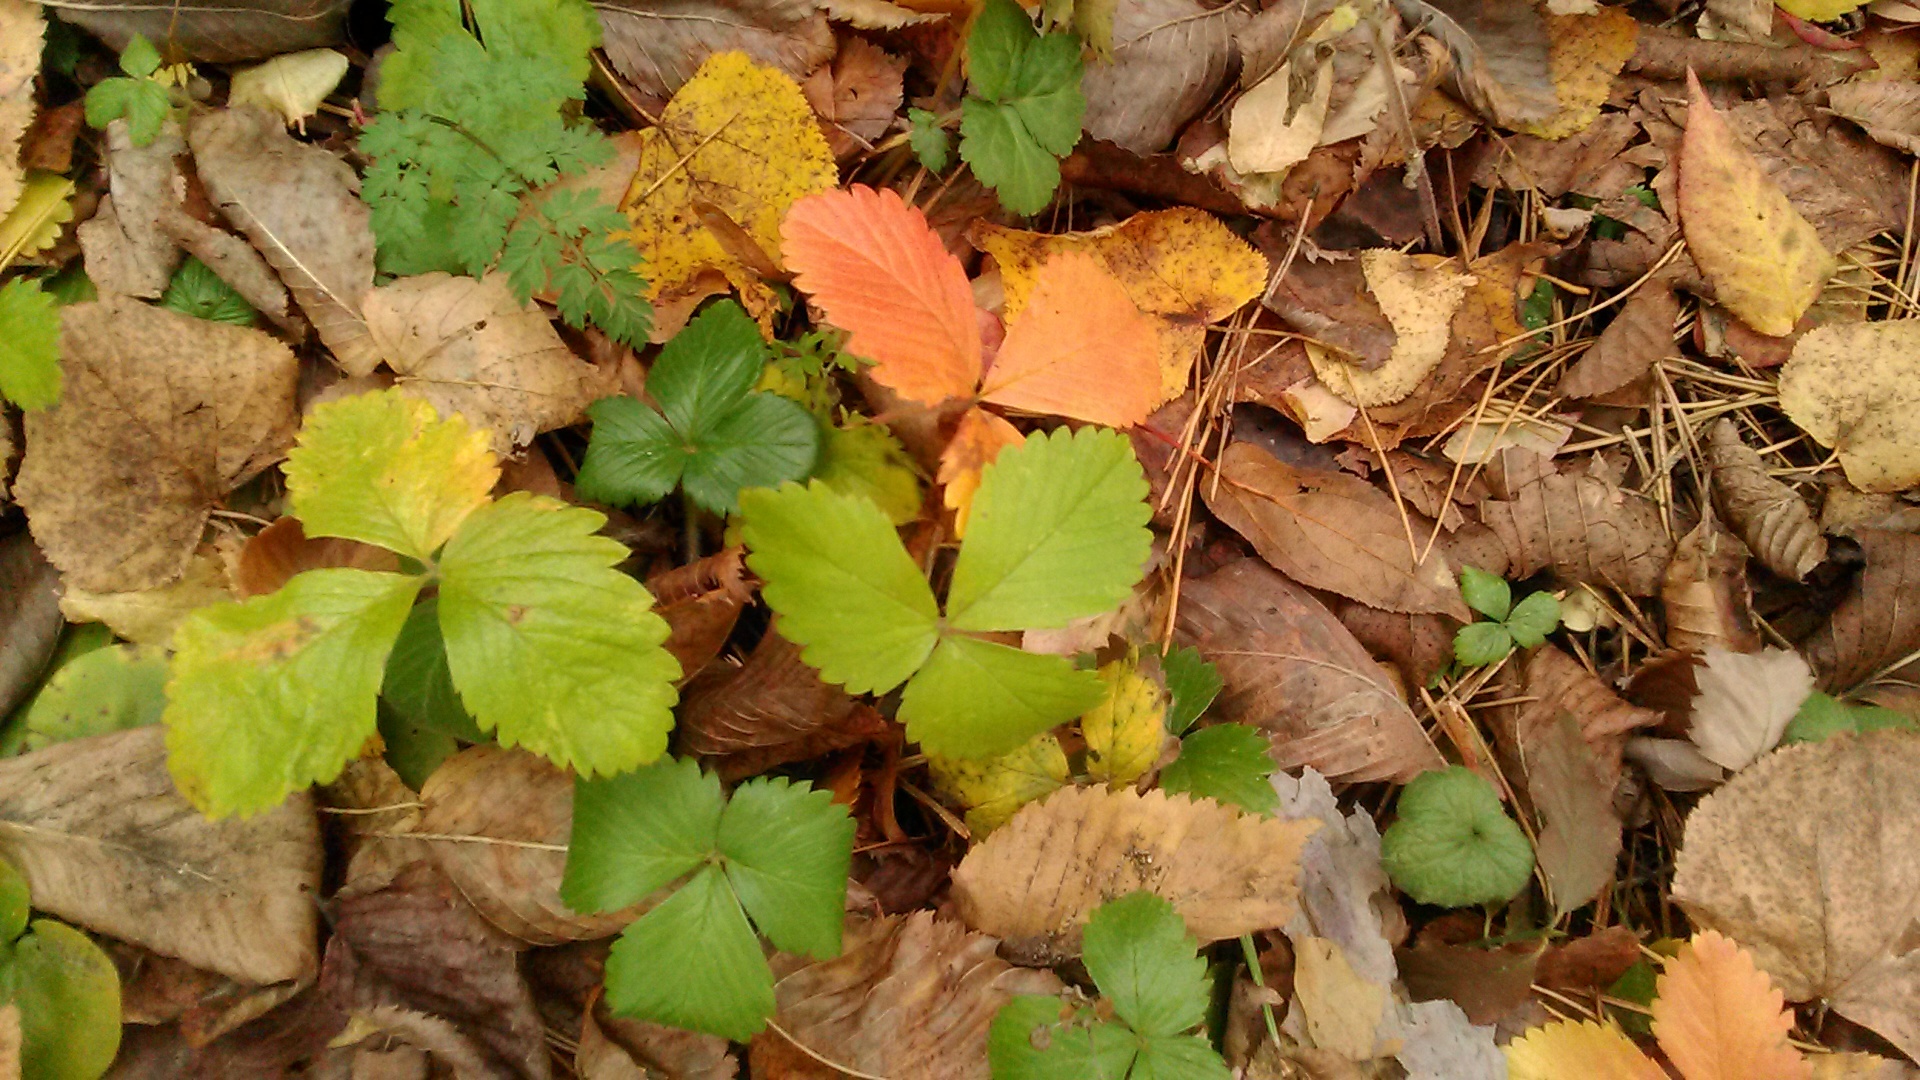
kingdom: Plantae
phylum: Tracheophyta
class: Magnoliopsida
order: Rosales
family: Rosaceae
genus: Fragaria
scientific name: Fragaria viridis
